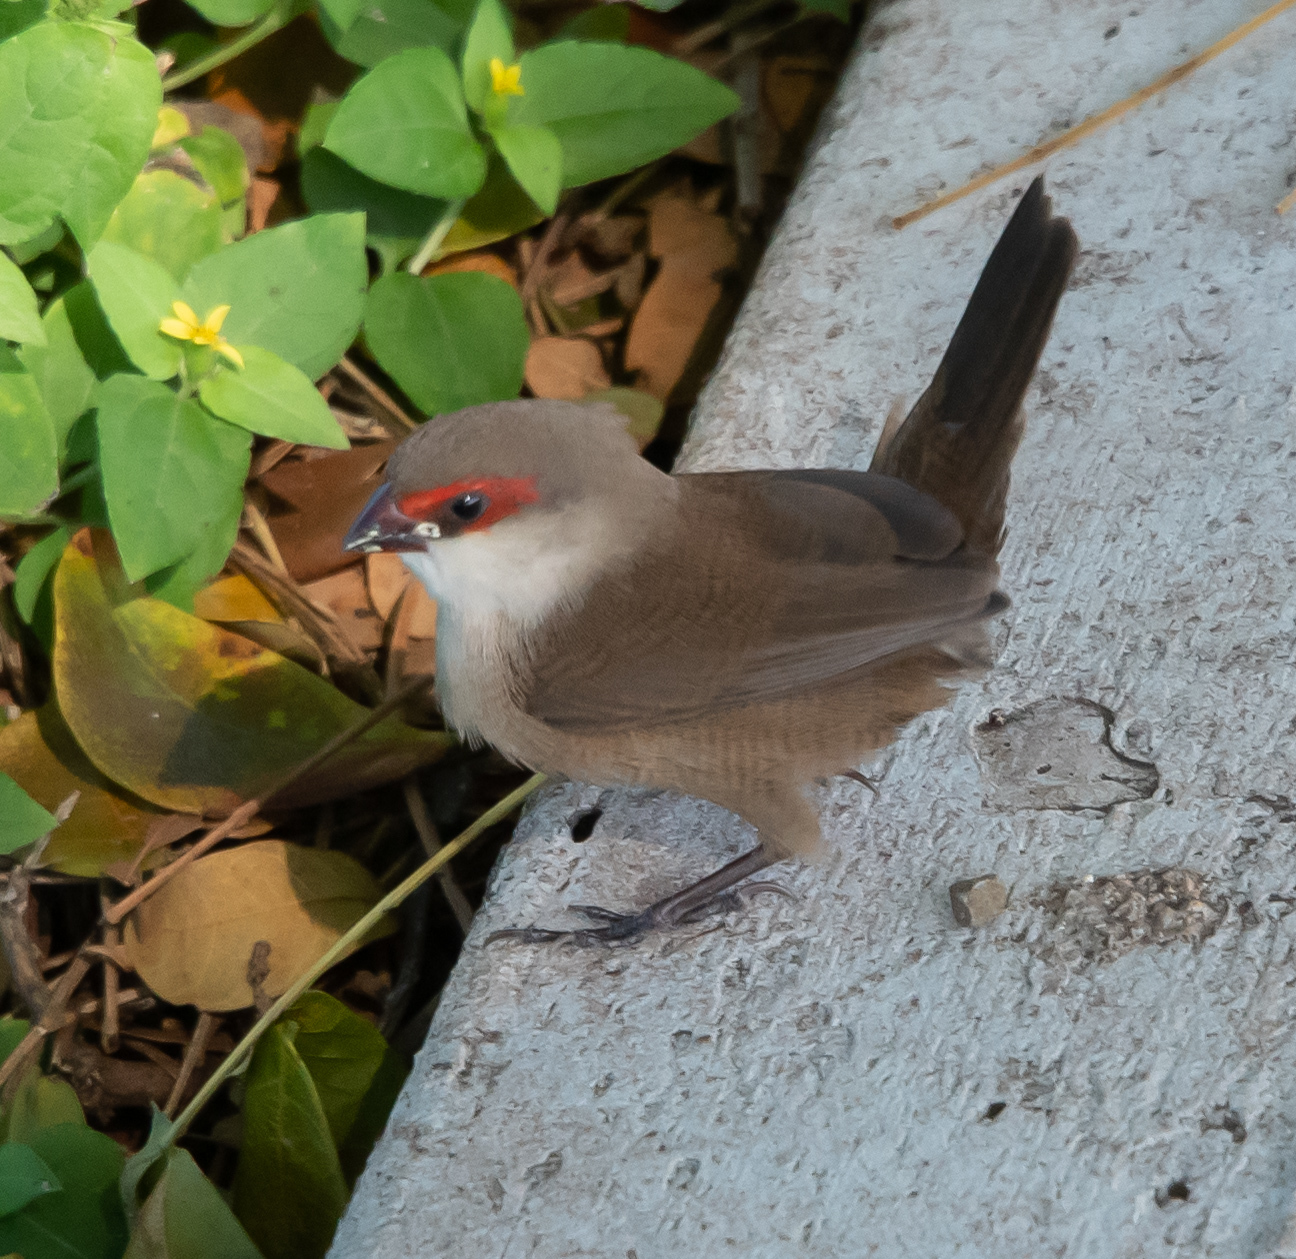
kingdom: Animalia
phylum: Chordata
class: Aves
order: Passeriformes
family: Estrildidae
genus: Estrilda
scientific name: Estrilda astrild
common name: Common waxbill
